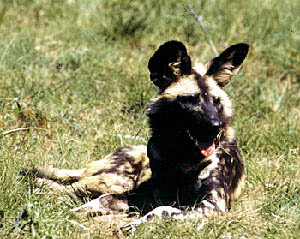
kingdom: Animalia
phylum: Chordata
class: Mammalia
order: Carnivora
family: Canidae
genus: Lycaon
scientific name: Lycaon pictus
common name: African wild dog
